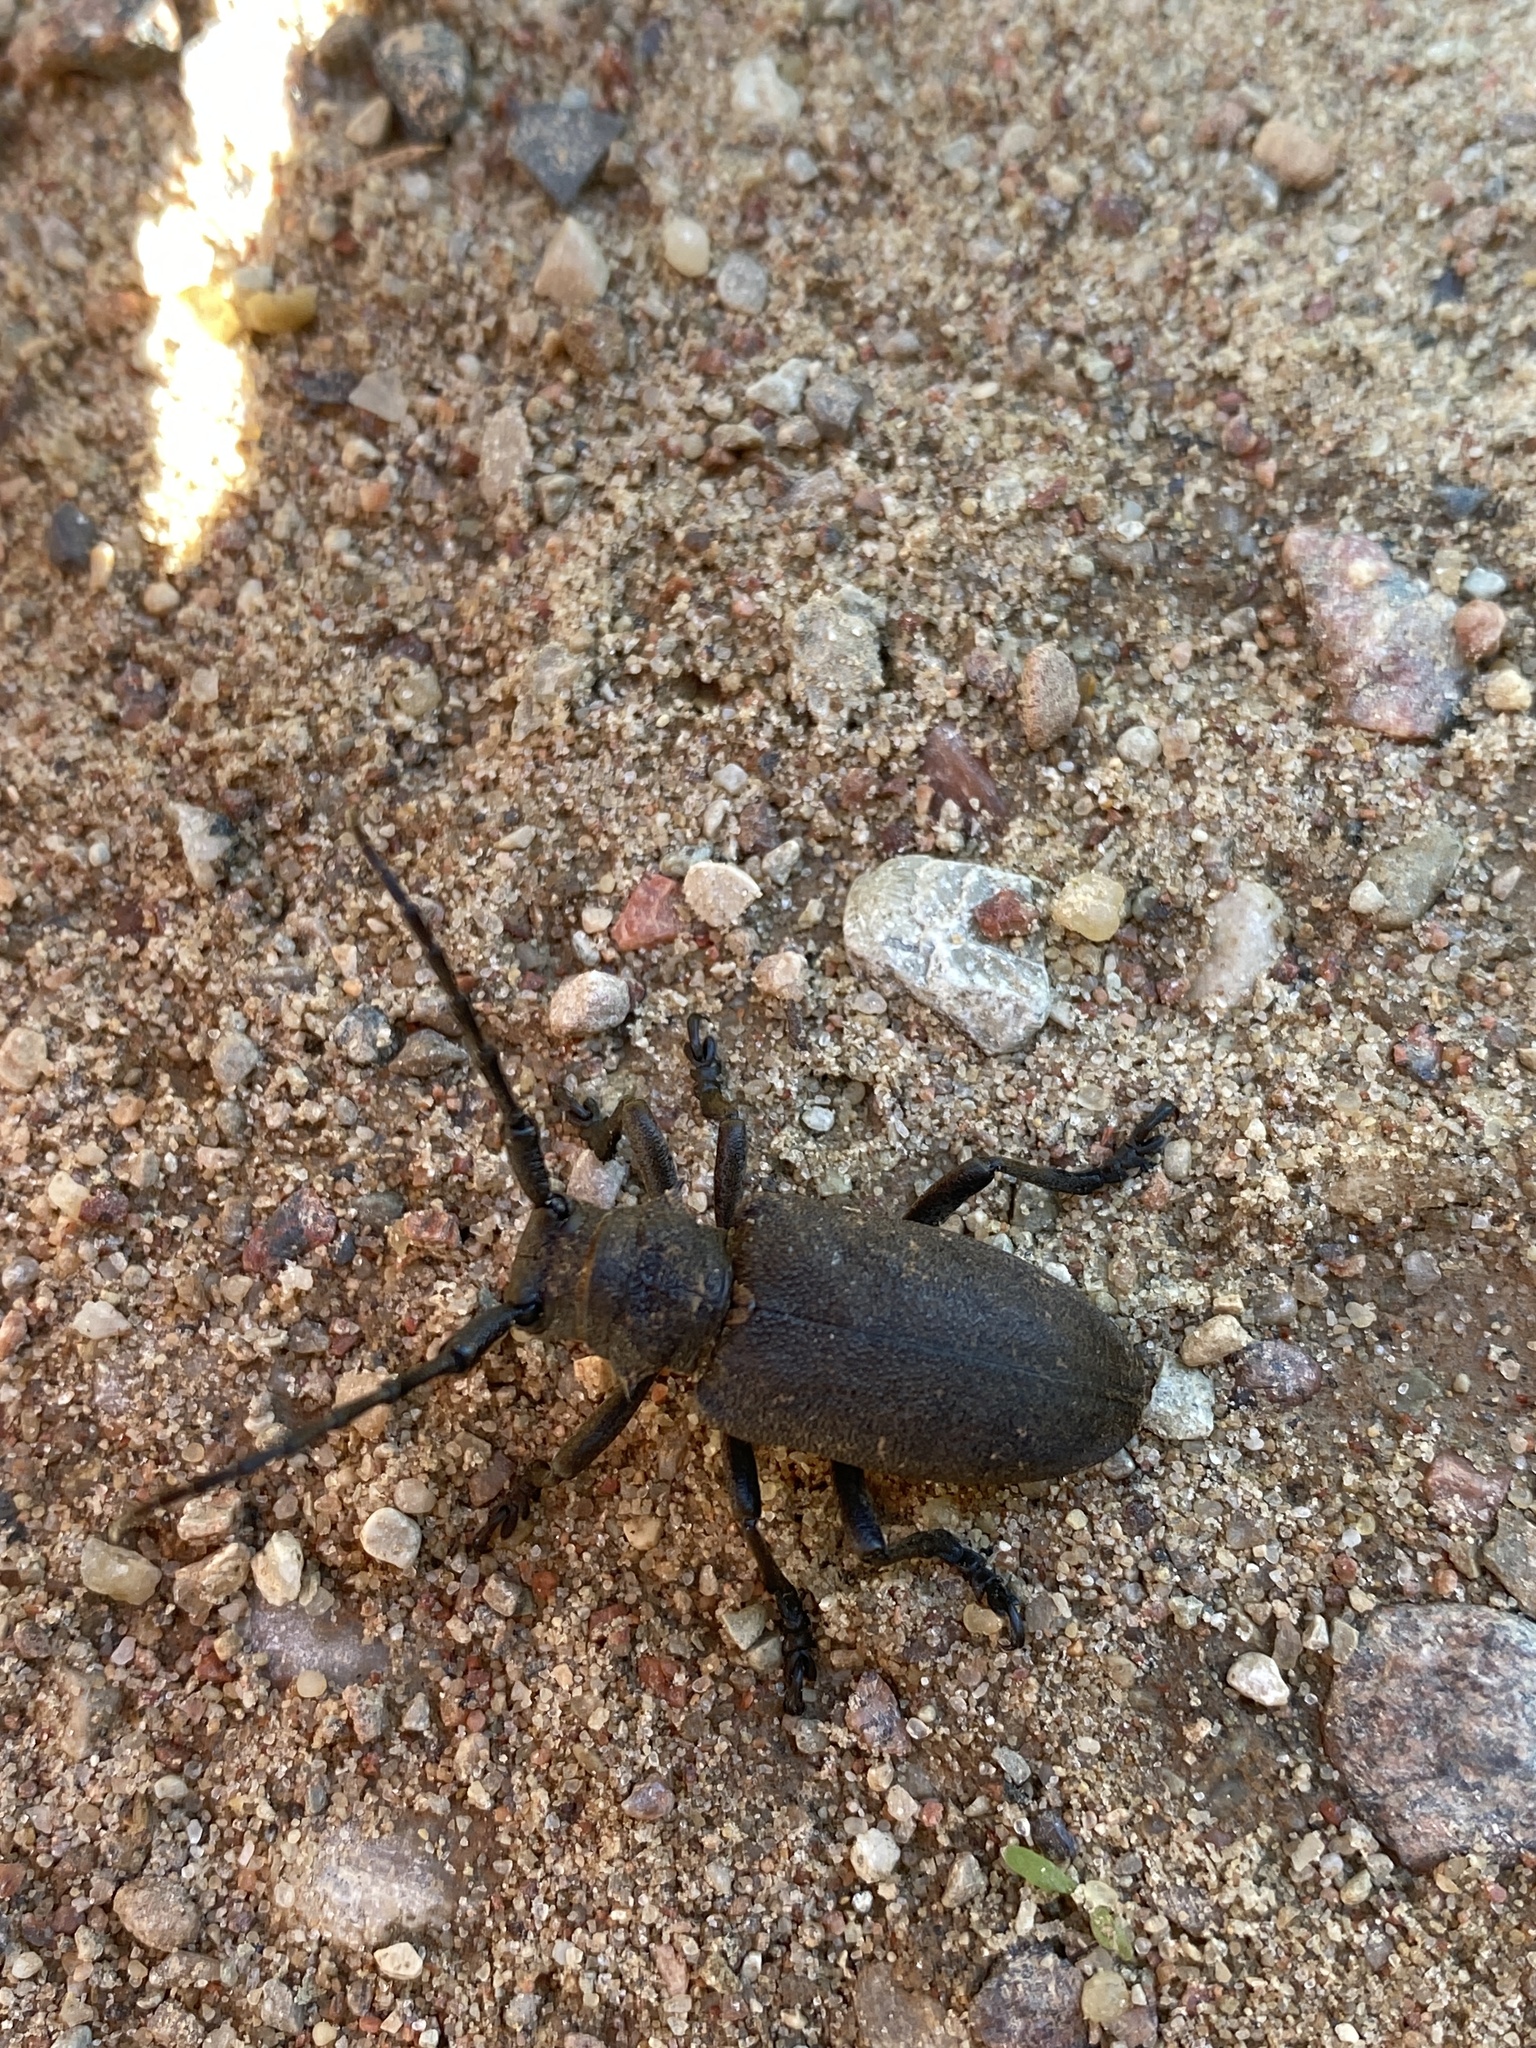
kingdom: Animalia
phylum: Arthropoda
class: Insecta
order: Coleoptera
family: Cerambycidae
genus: Lamia
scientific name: Lamia textor
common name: Weaver beetle
